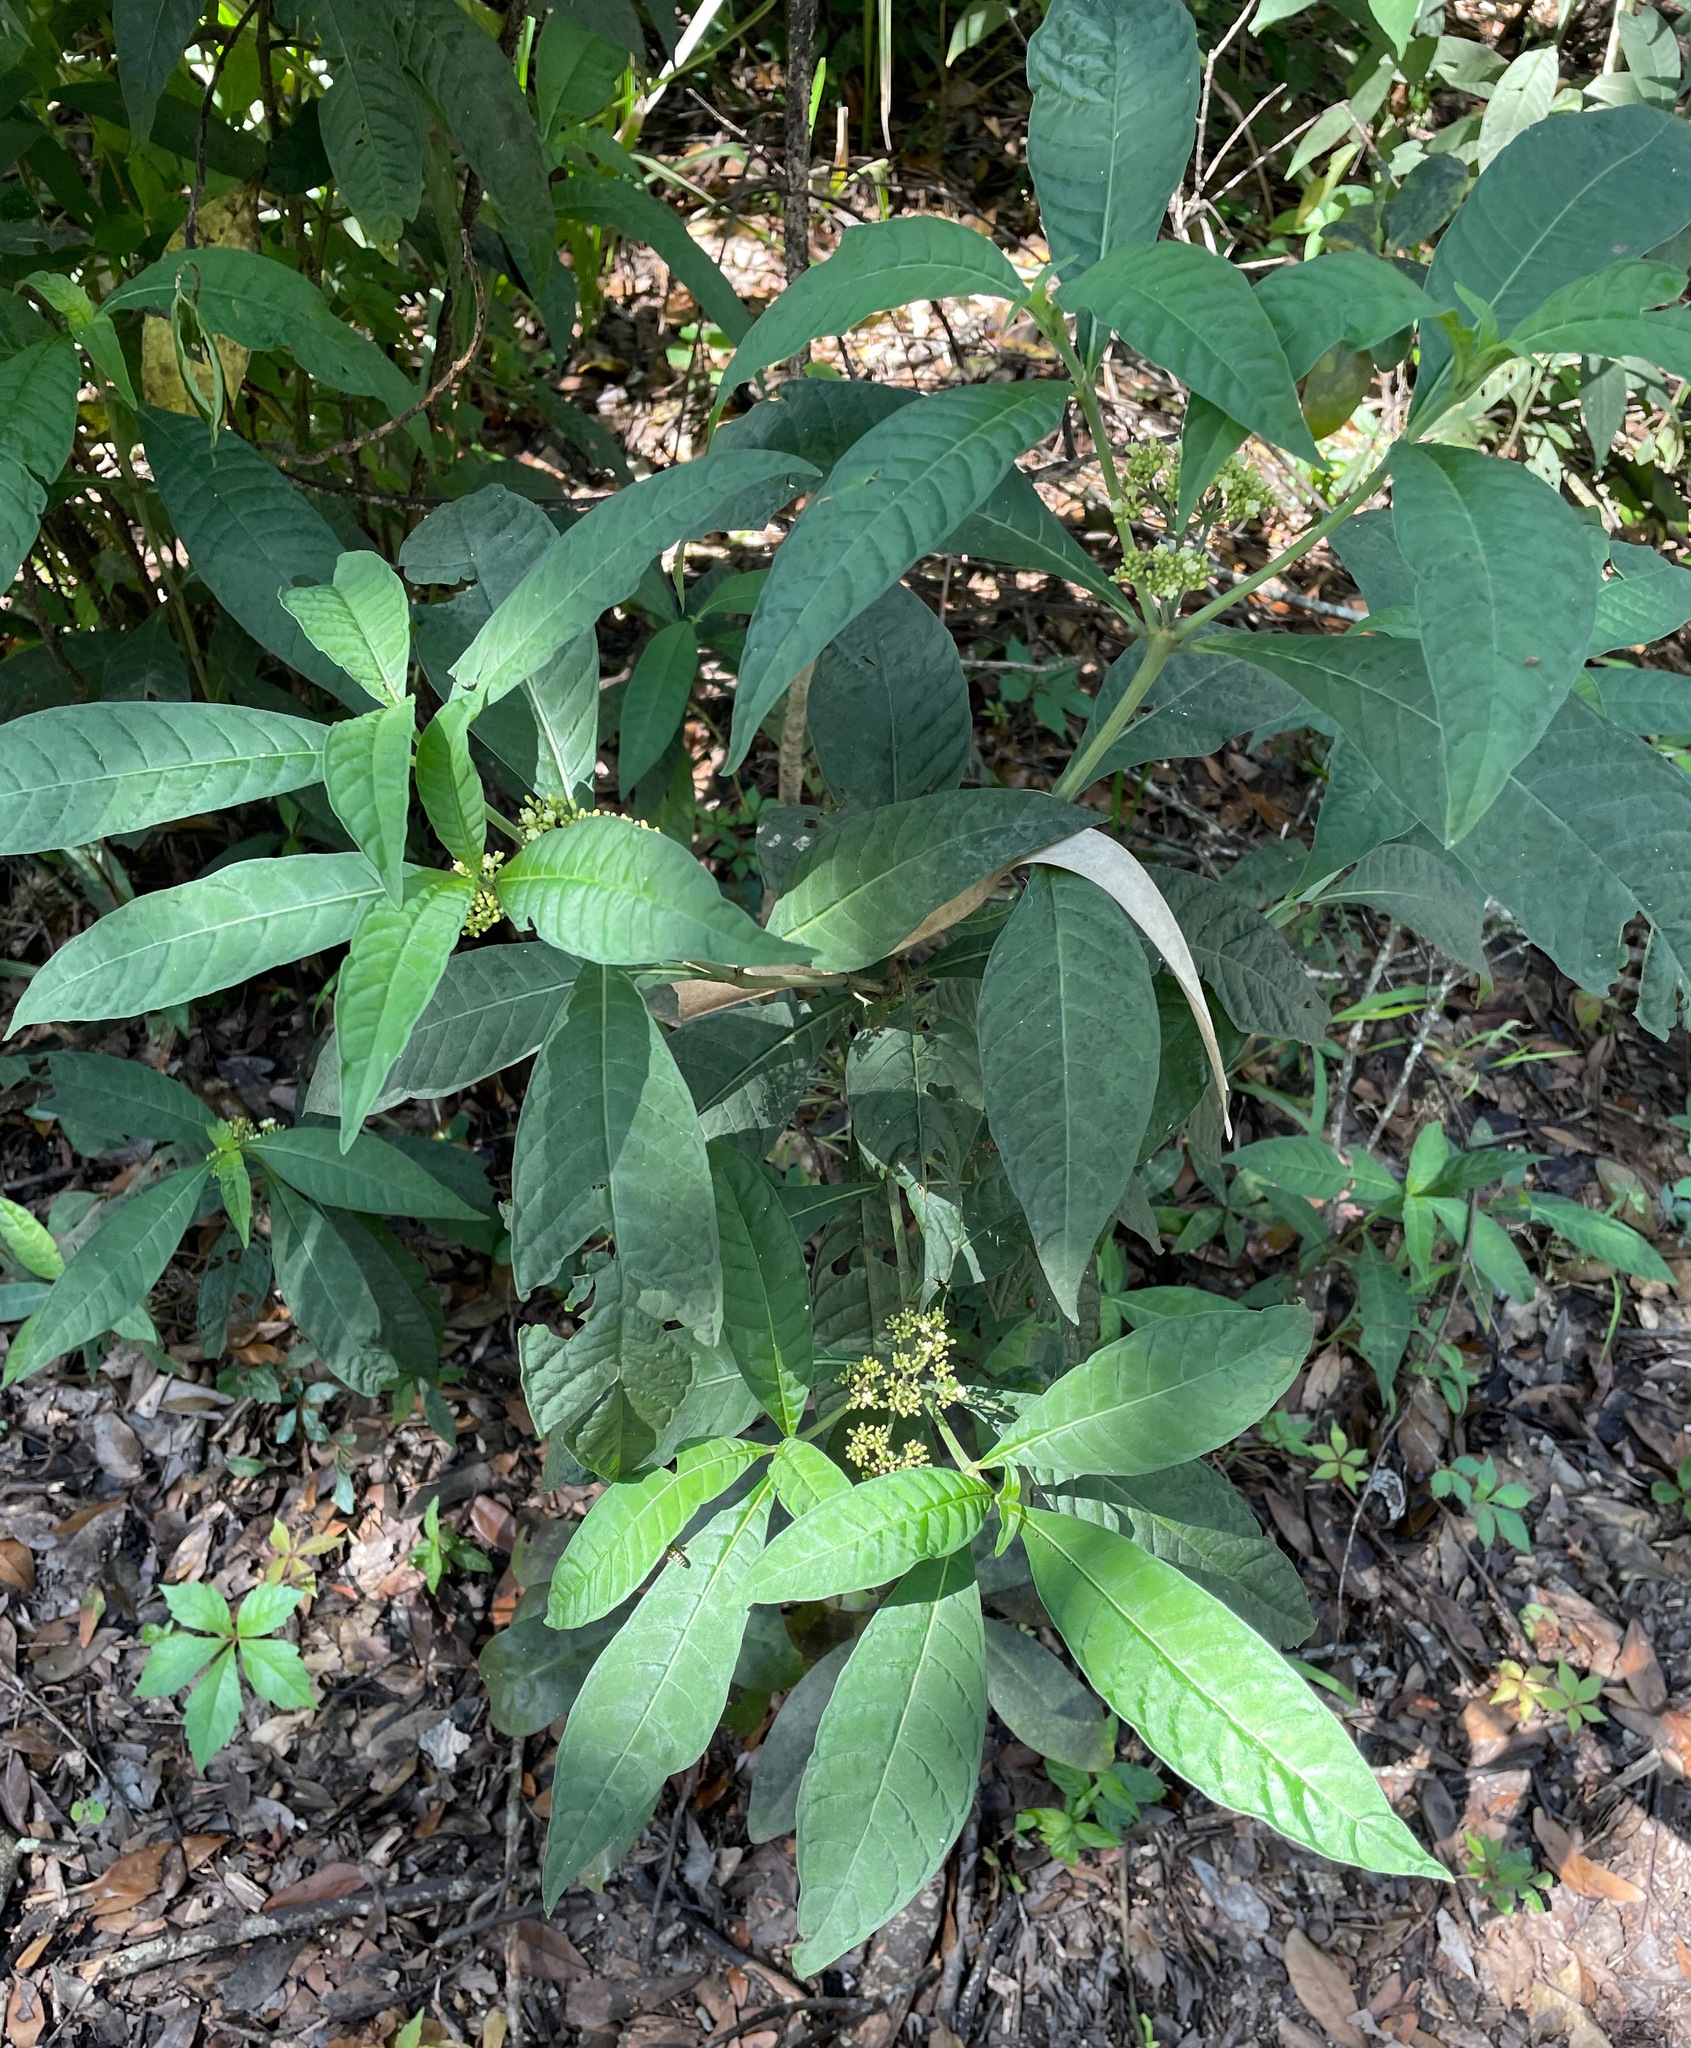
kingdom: Plantae
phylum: Tracheophyta
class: Magnoliopsida
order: Gentianales
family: Rubiaceae
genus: Psychotria
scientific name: Psychotria tenuifolia
